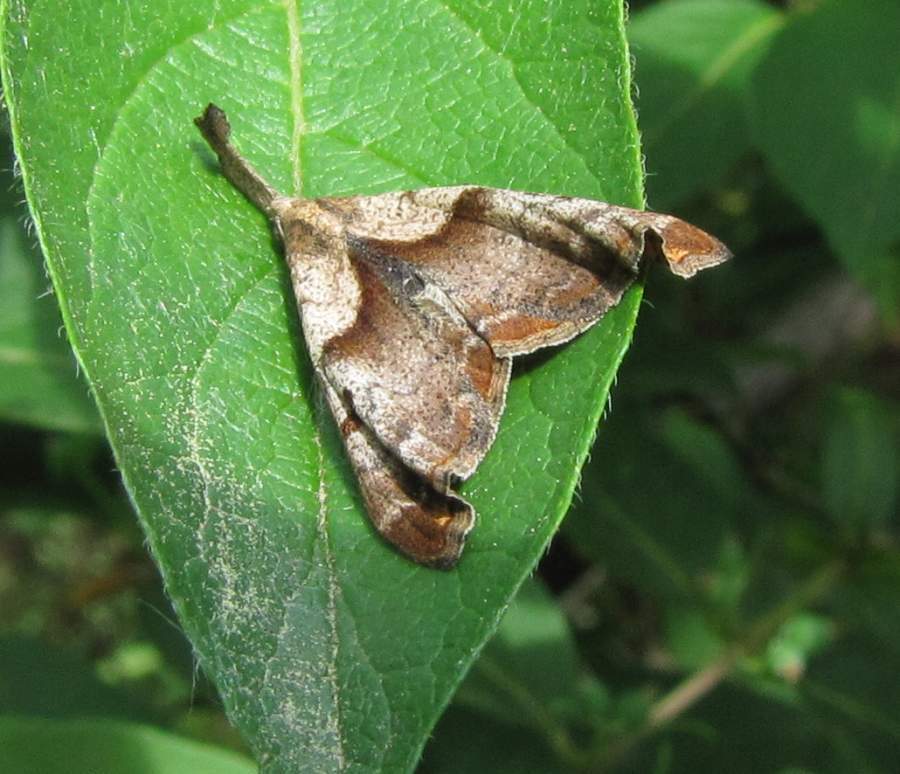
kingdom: Animalia
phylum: Arthropoda
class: Insecta
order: Lepidoptera
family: Erebidae
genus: Palthis
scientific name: Palthis angulalis
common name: Dark-spotted palthis moth
